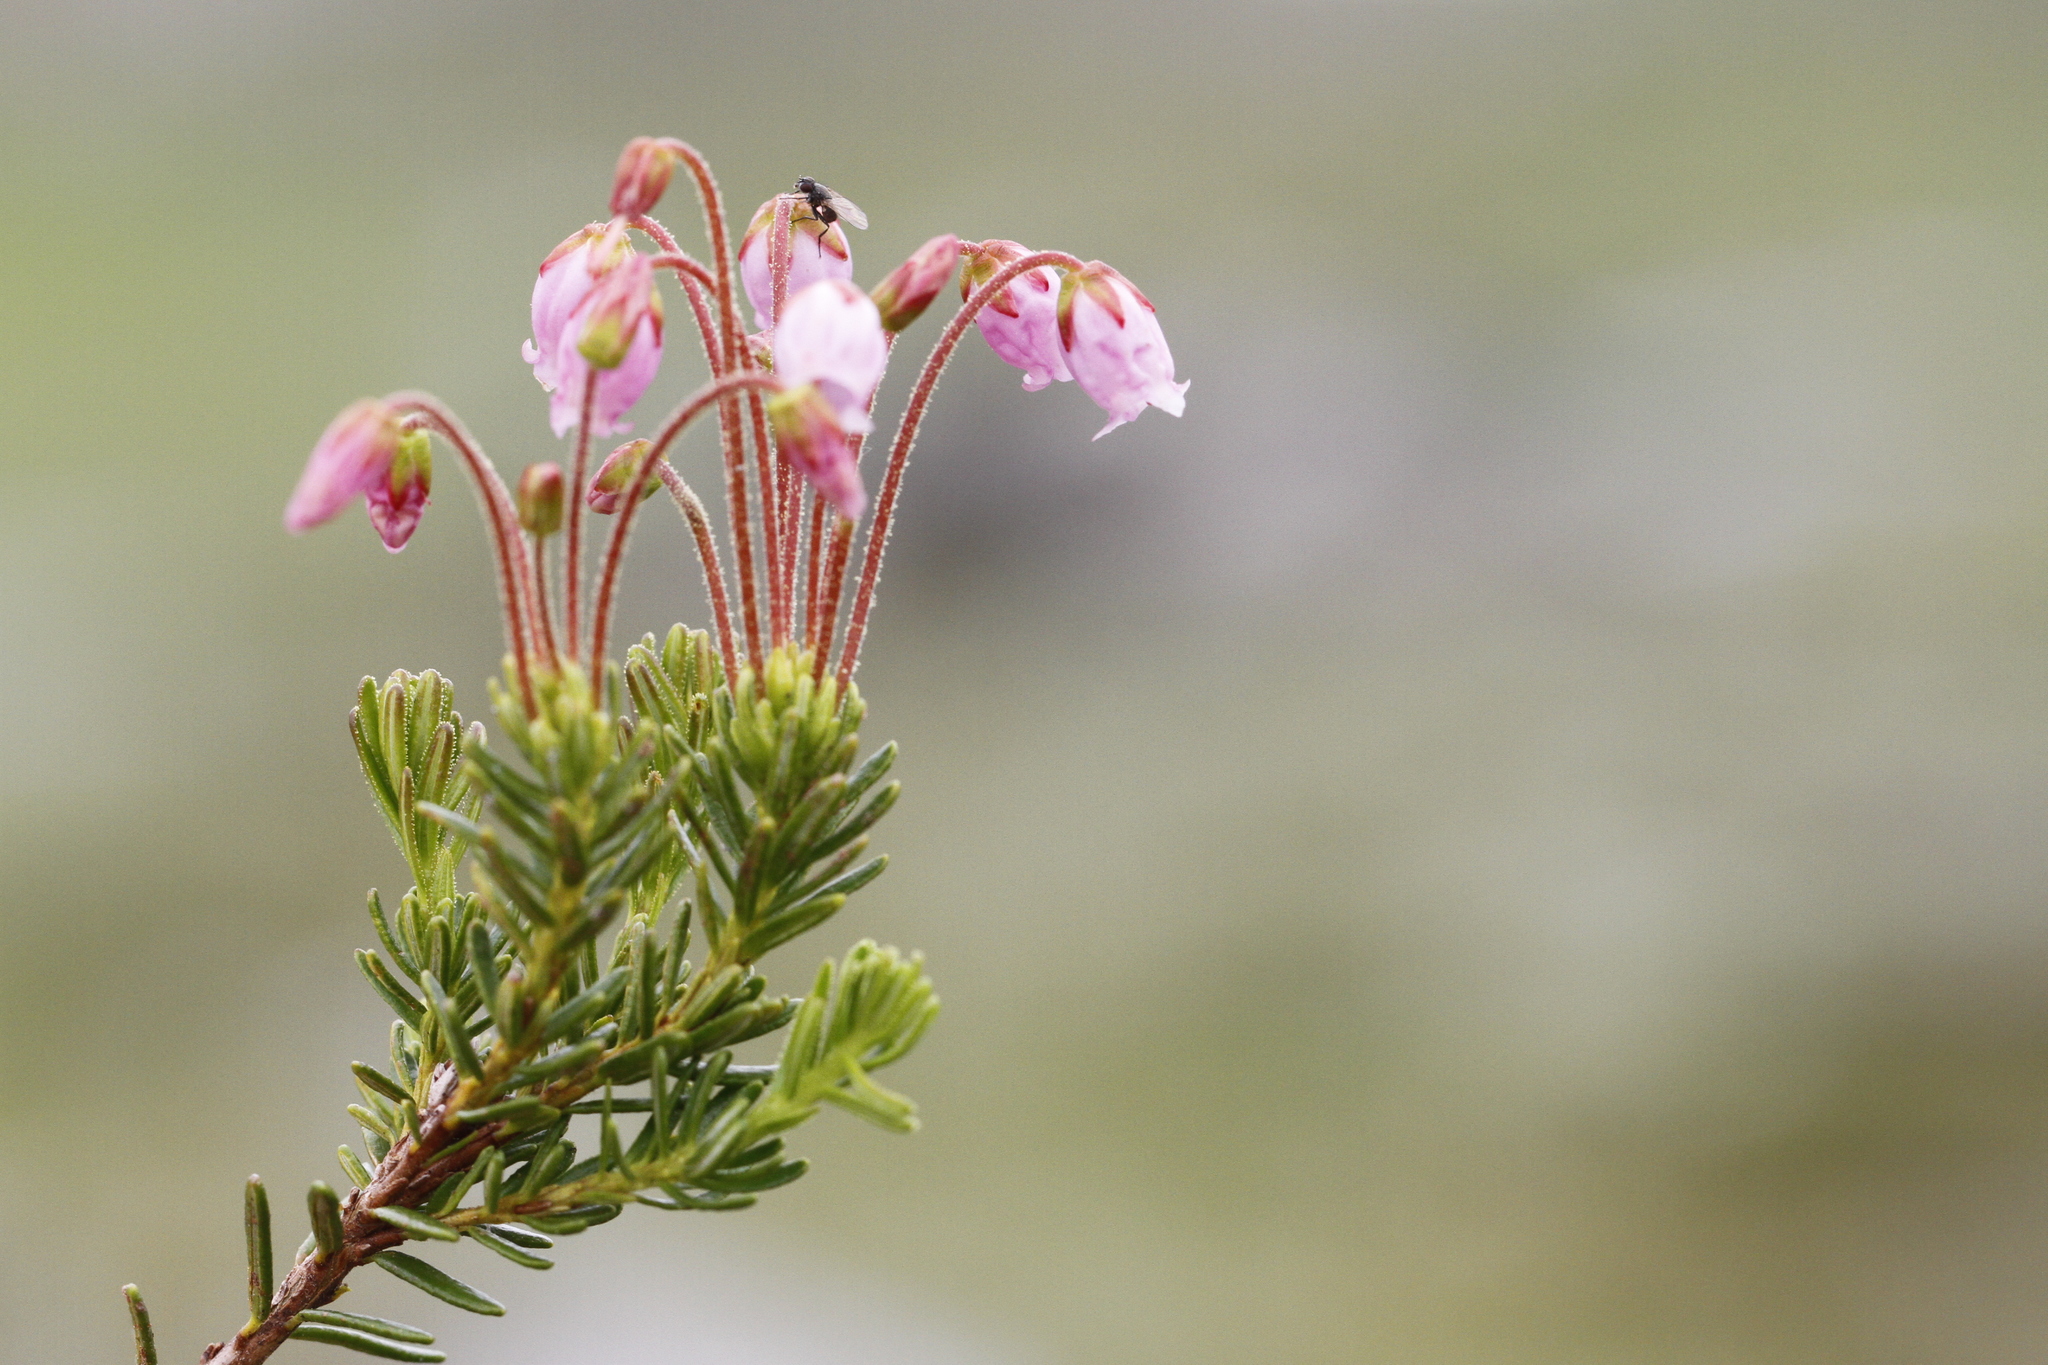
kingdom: Plantae
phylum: Tracheophyta
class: Magnoliopsida
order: Ericales
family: Ericaceae
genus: Phyllodoce
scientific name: Phyllodoce intermedia
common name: Hybrid mountain heather
